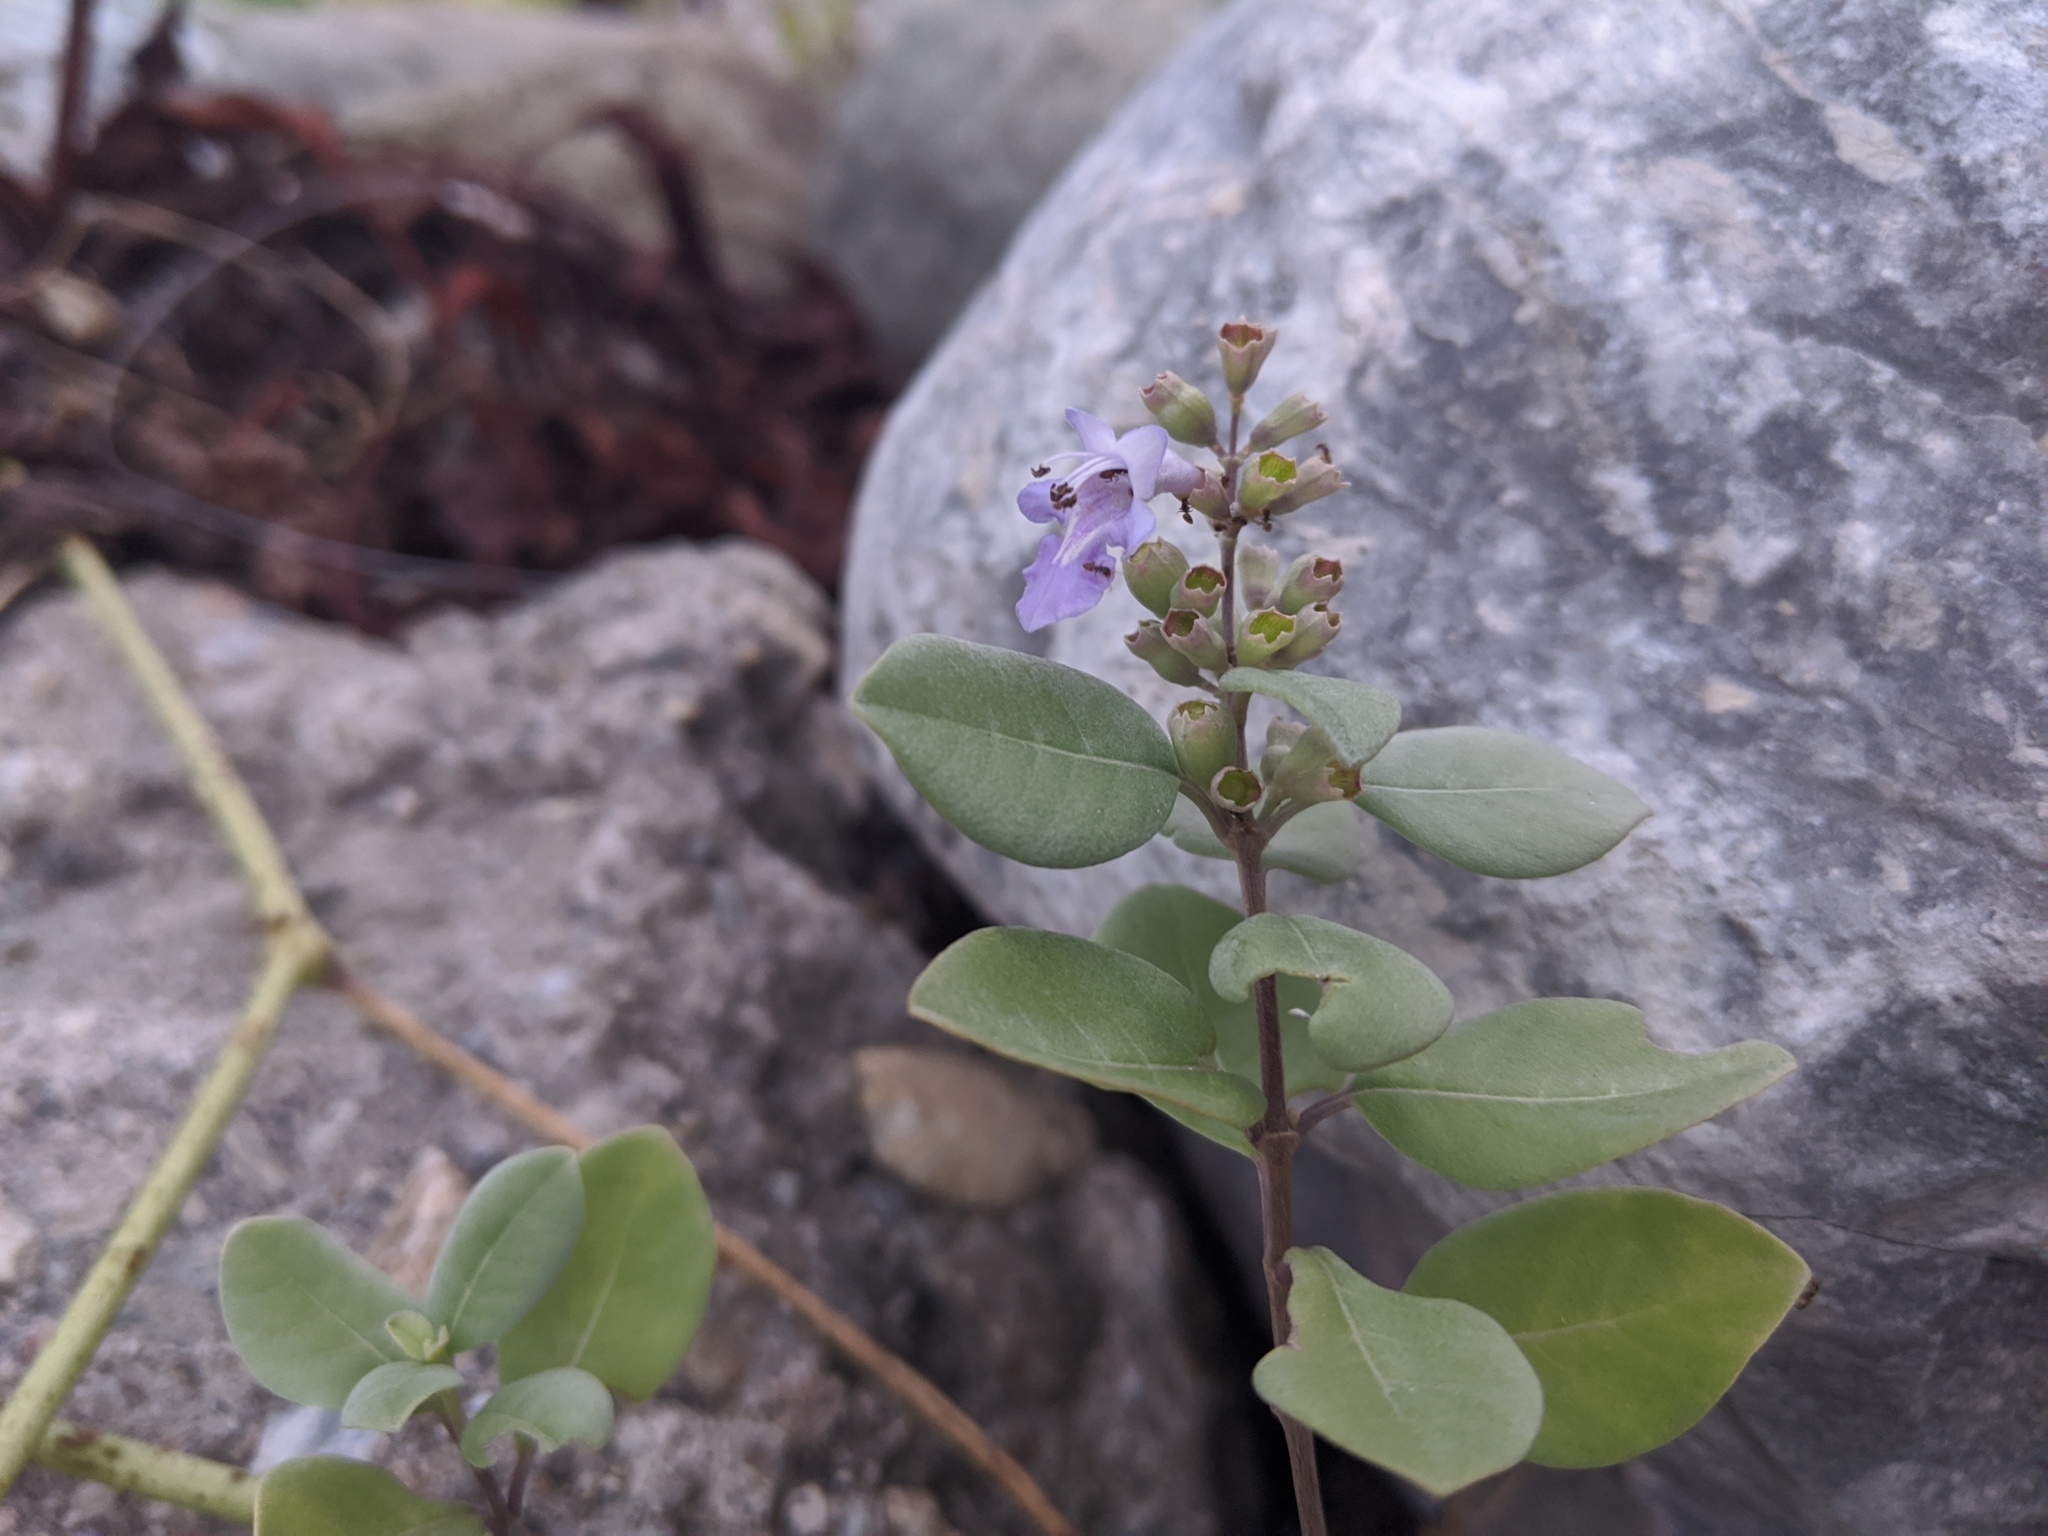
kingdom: Plantae
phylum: Tracheophyta
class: Magnoliopsida
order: Lamiales
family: Lamiaceae
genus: Vitex
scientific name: Vitex rotundifolia
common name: Beach vitex
